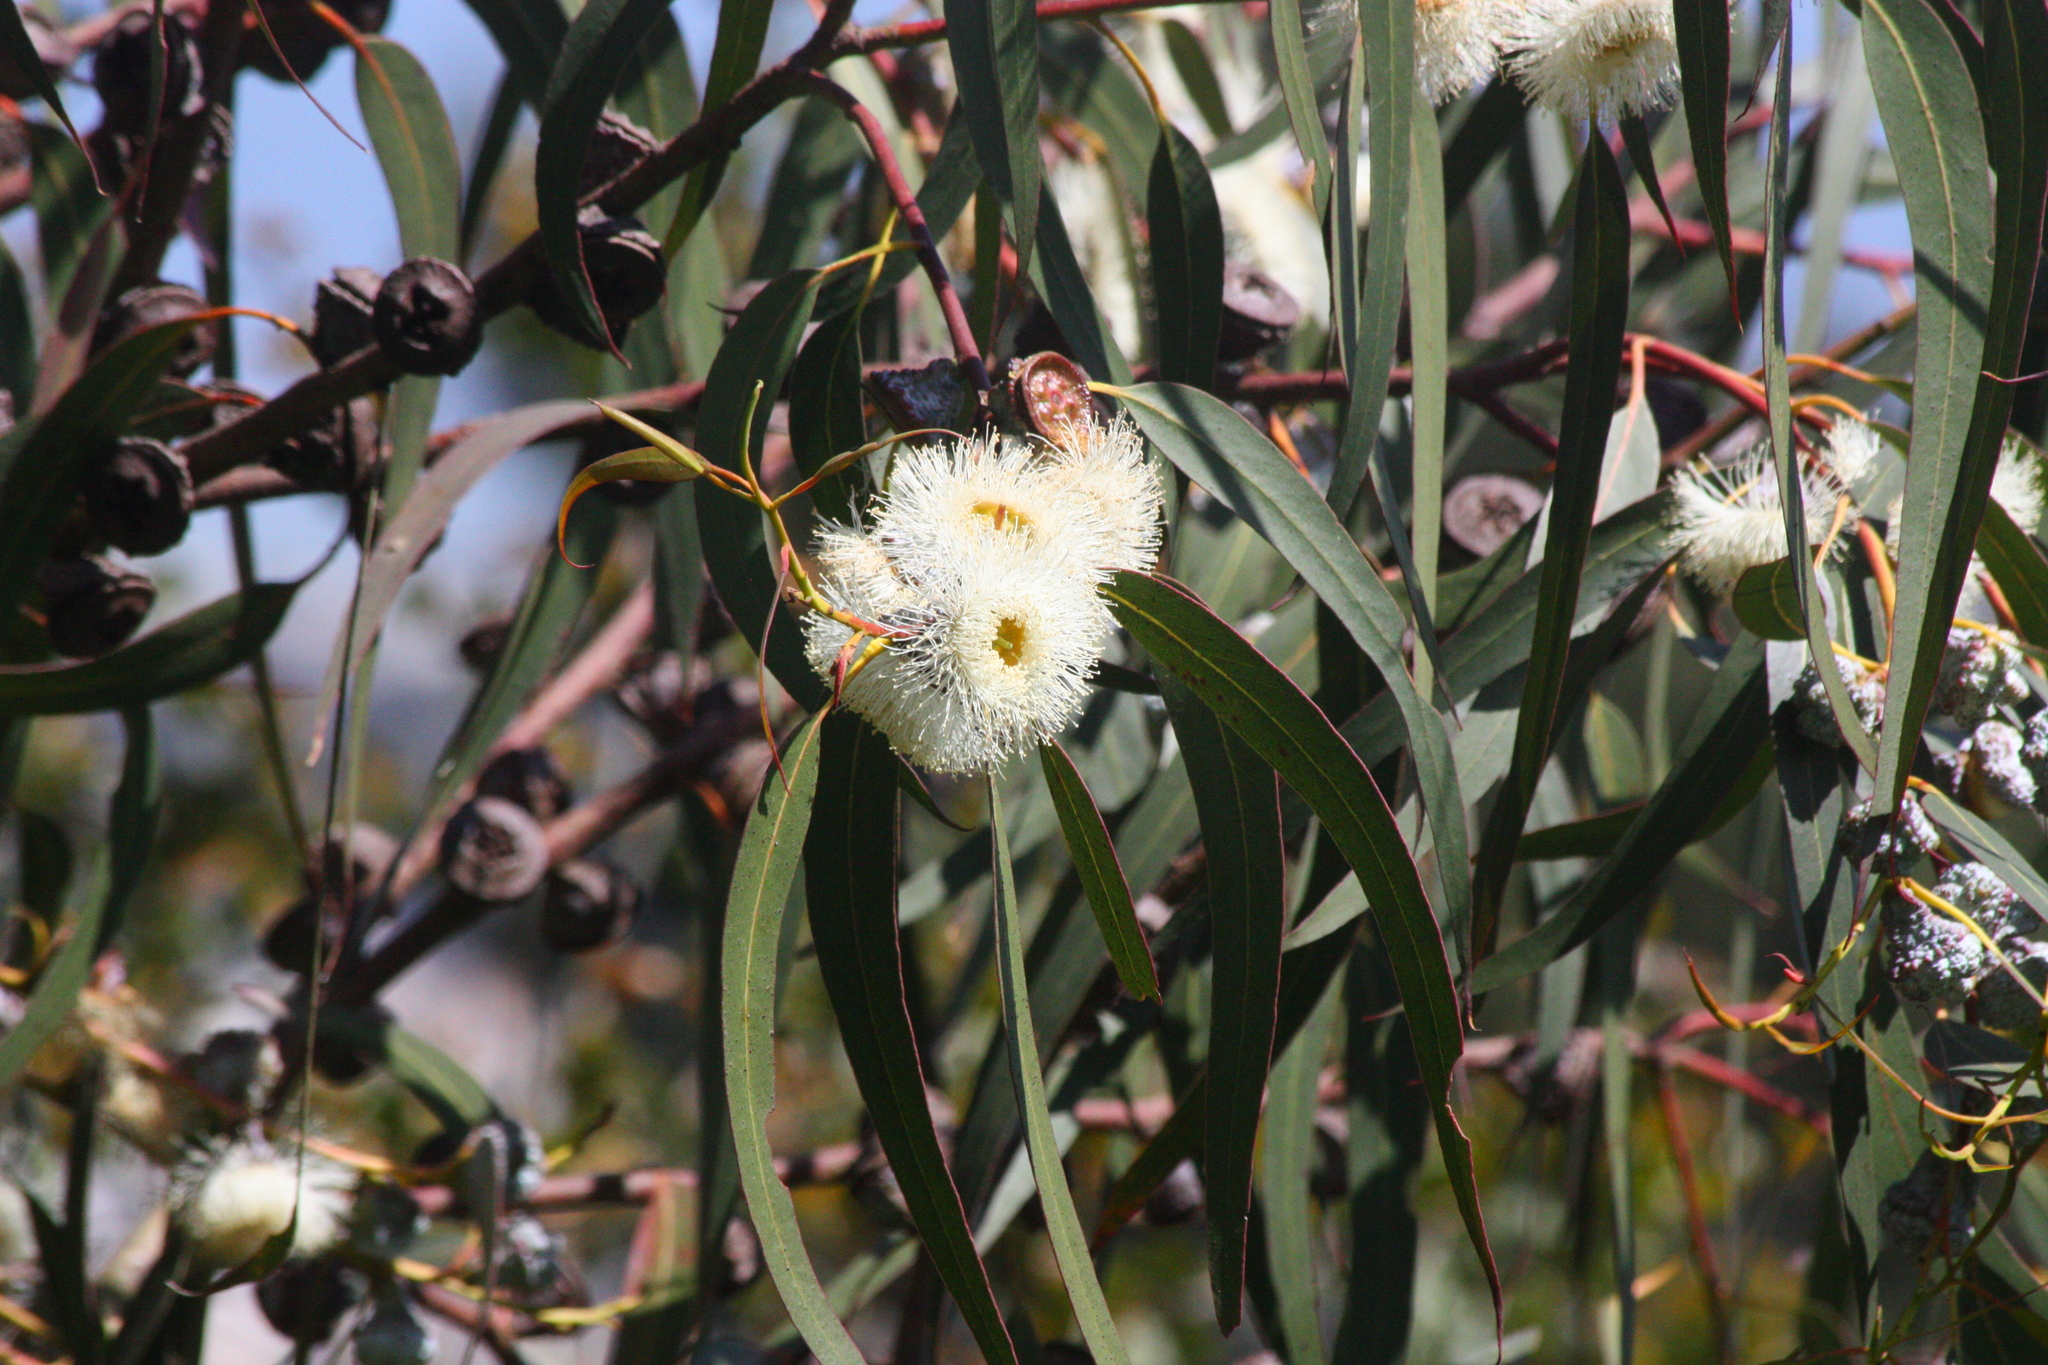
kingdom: Plantae
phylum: Tracheophyta
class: Magnoliopsida
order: Myrtales
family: Myrtaceae
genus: Eucalyptus
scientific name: Eucalyptus globulus
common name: Southern blue-gum
